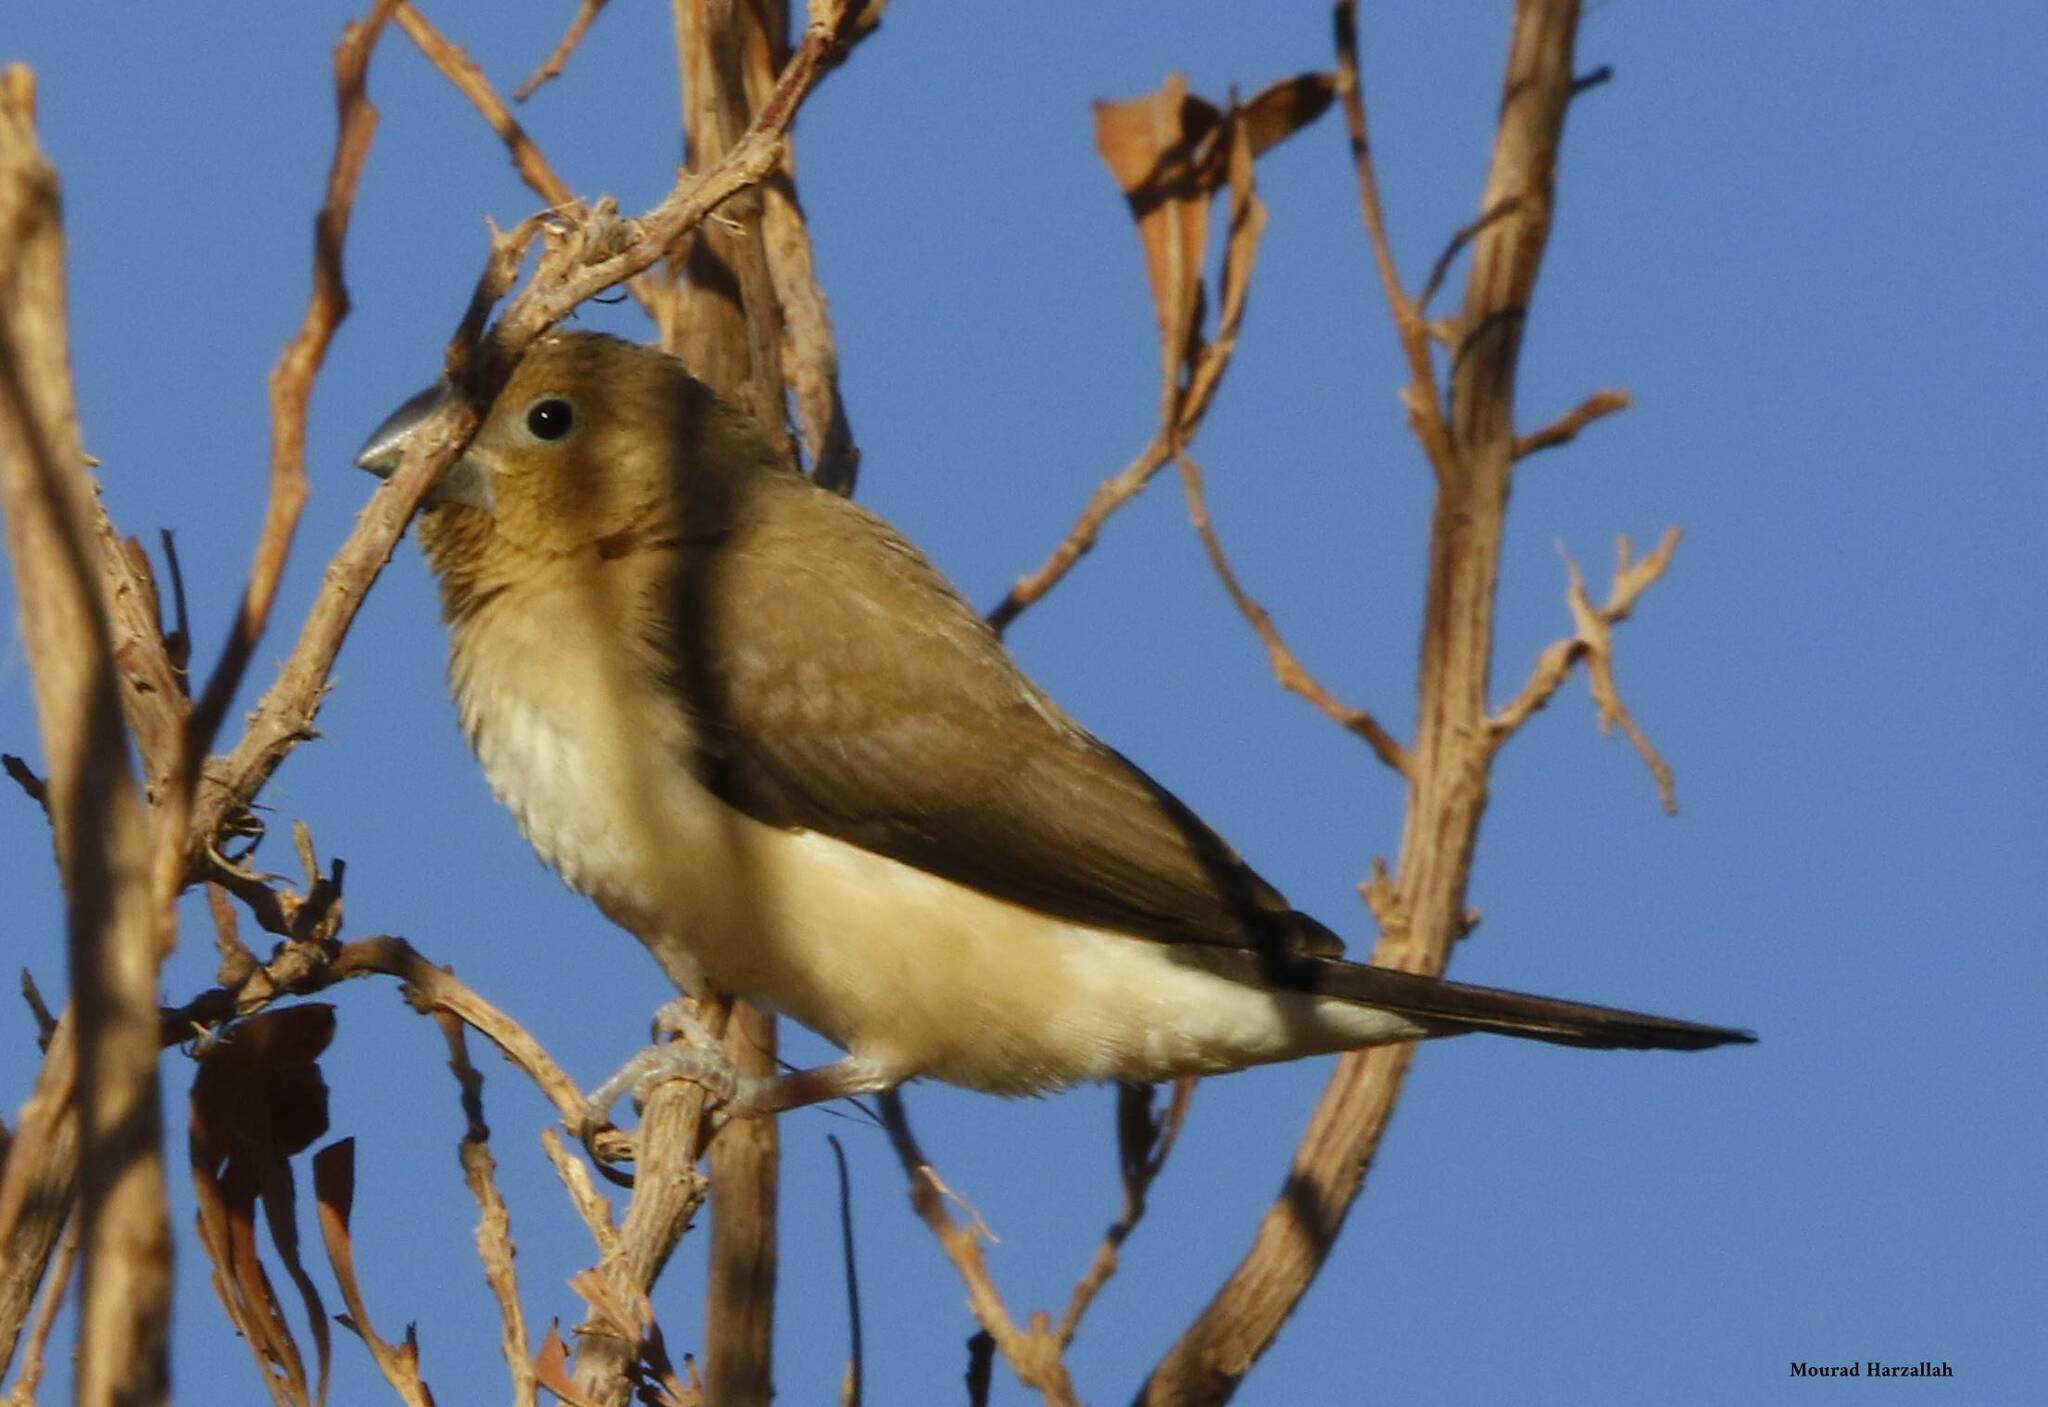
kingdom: Animalia
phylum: Chordata
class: Aves
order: Passeriformes
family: Estrildidae
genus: Euodice
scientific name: Euodice cantans
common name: African silverbill
